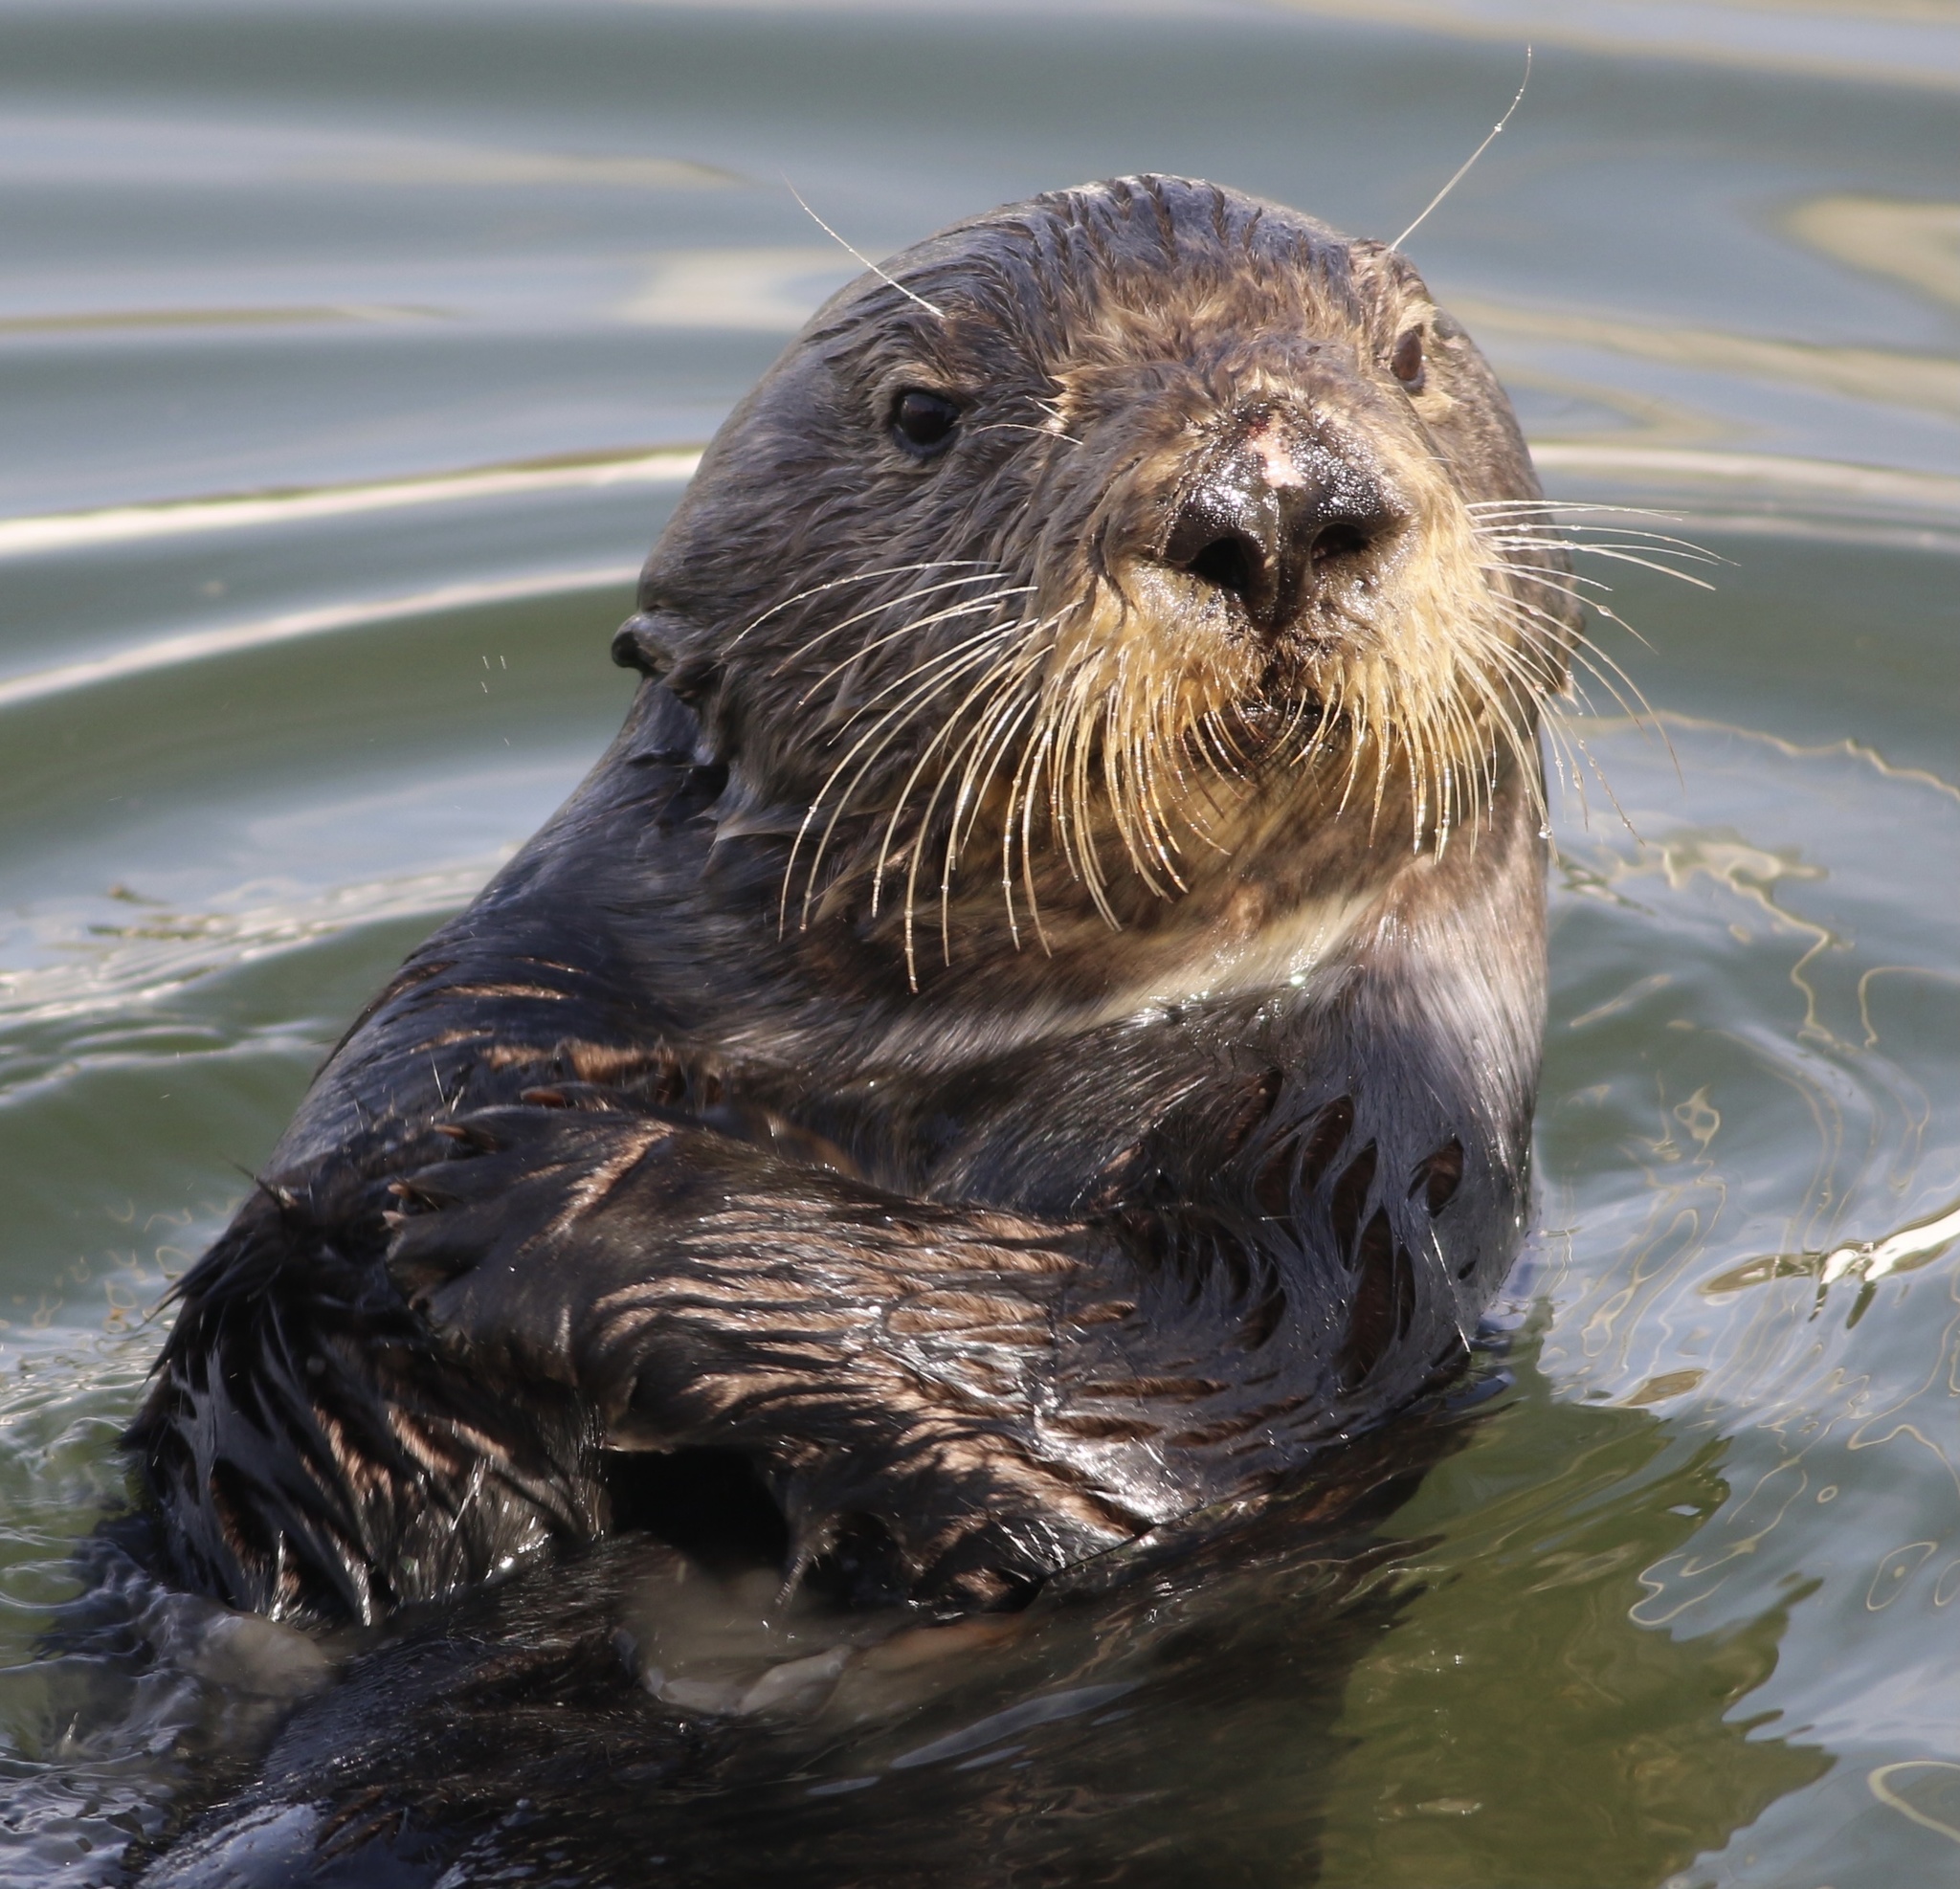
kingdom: Animalia
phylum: Chordata
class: Mammalia
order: Carnivora
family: Mustelidae
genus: Enhydra
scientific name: Enhydra lutris
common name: Sea otter
